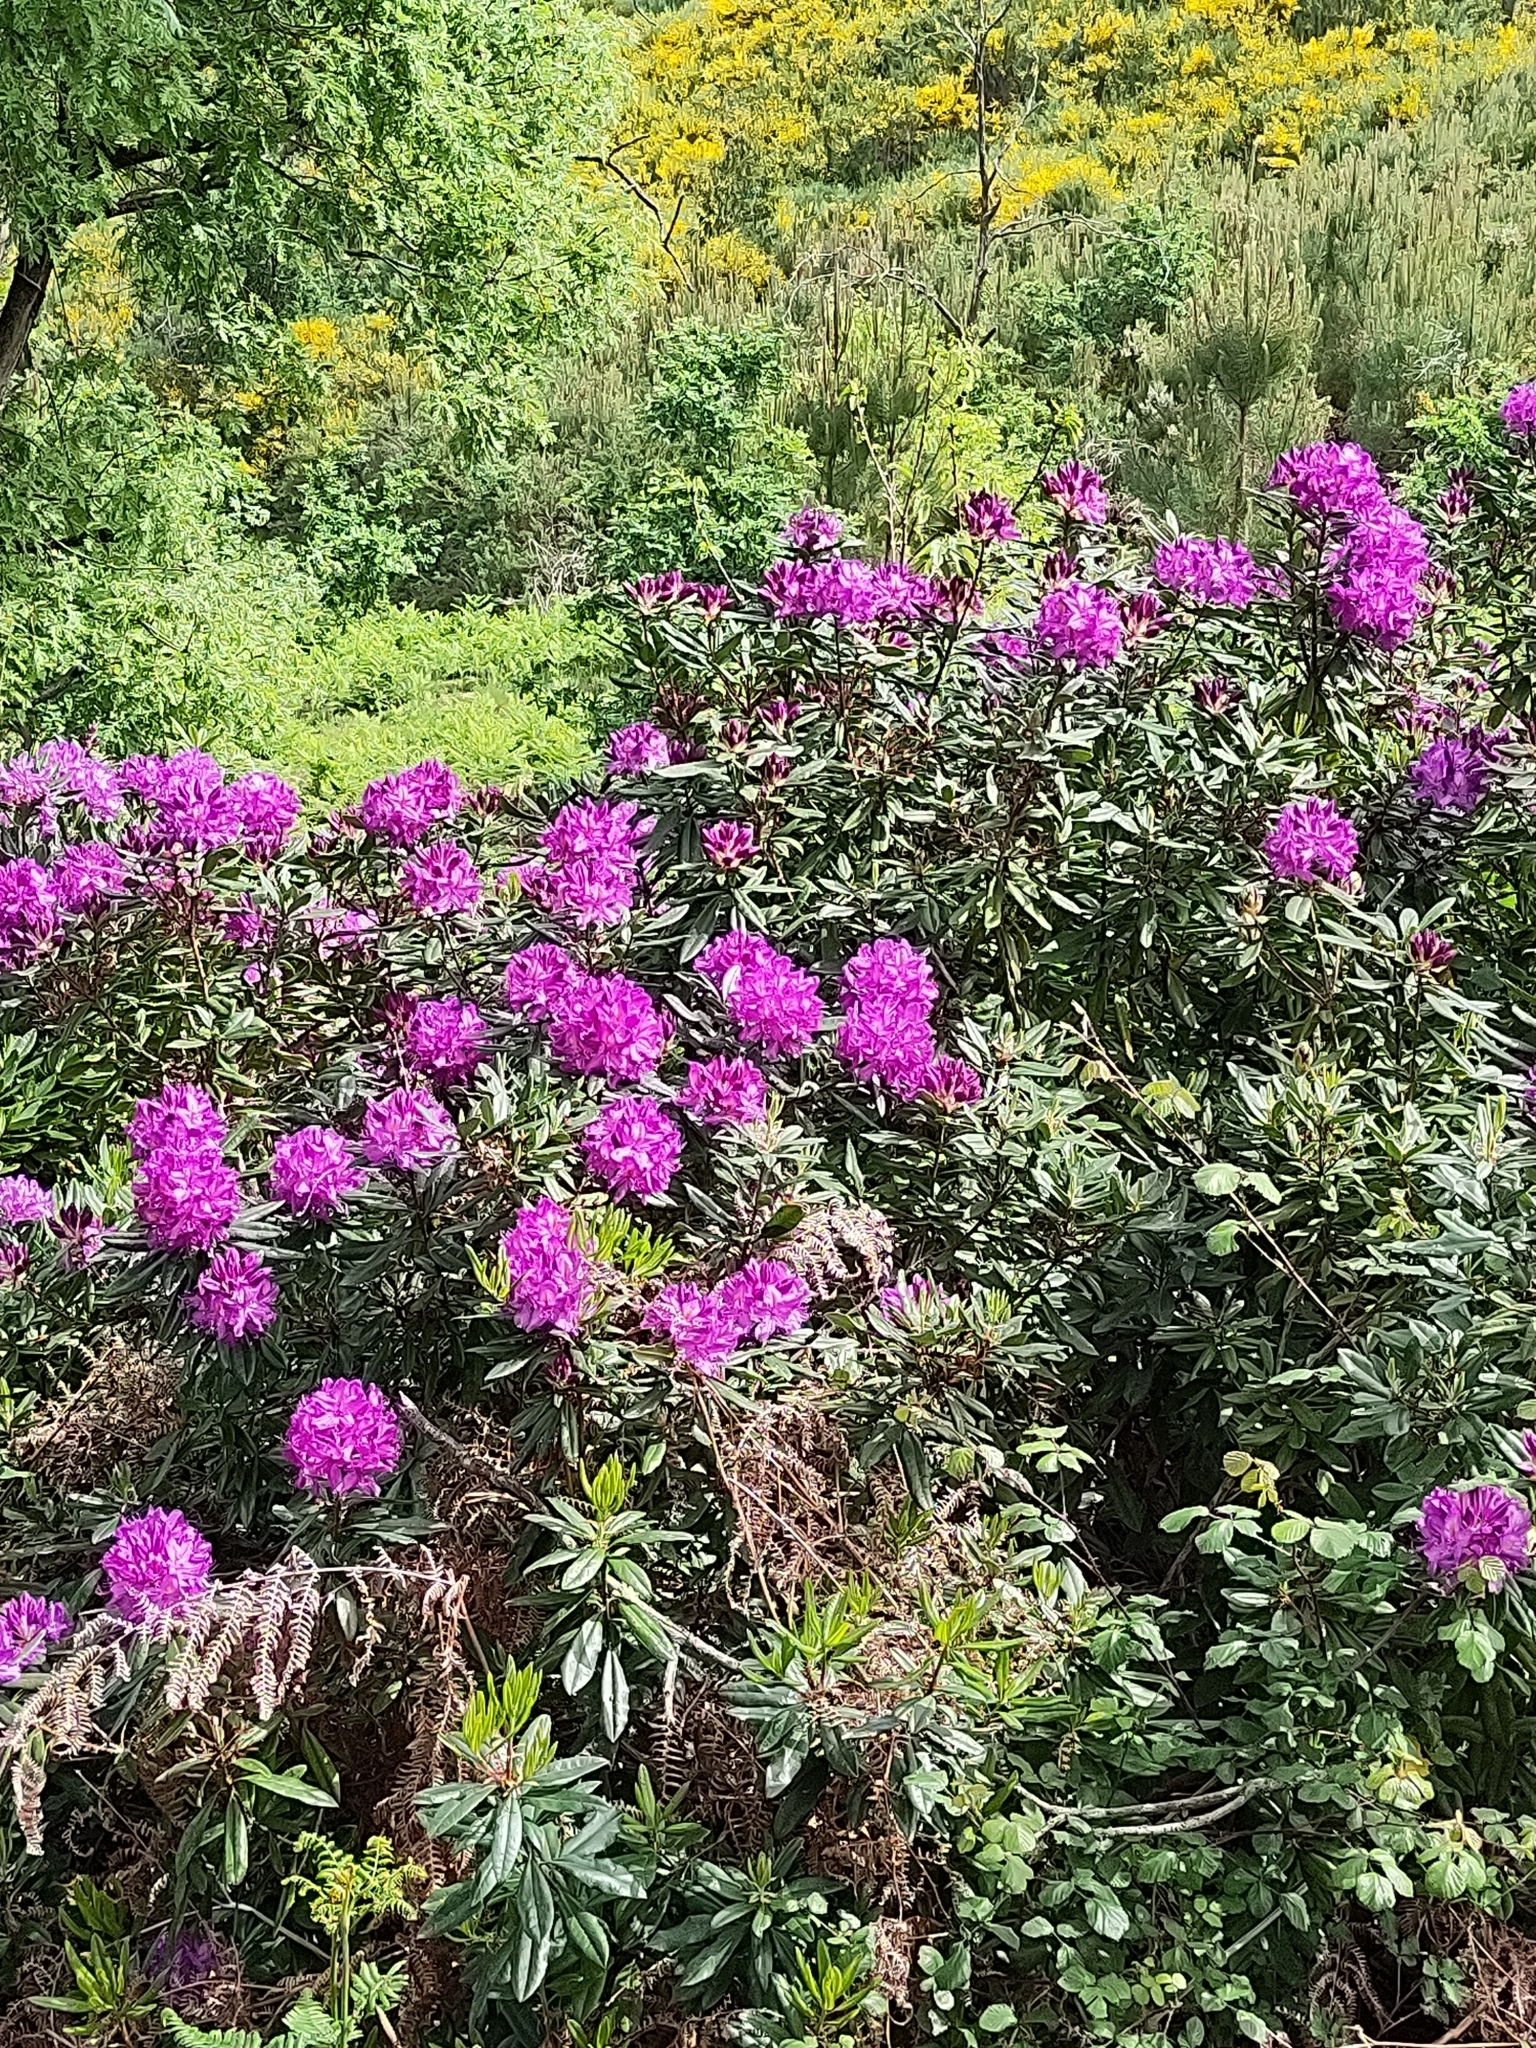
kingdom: Plantae
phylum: Tracheophyta
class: Magnoliopsida
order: Ericales
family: Ericaceae
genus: Rhododendron
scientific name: Rhododendron ponticum
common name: Rhododendron
